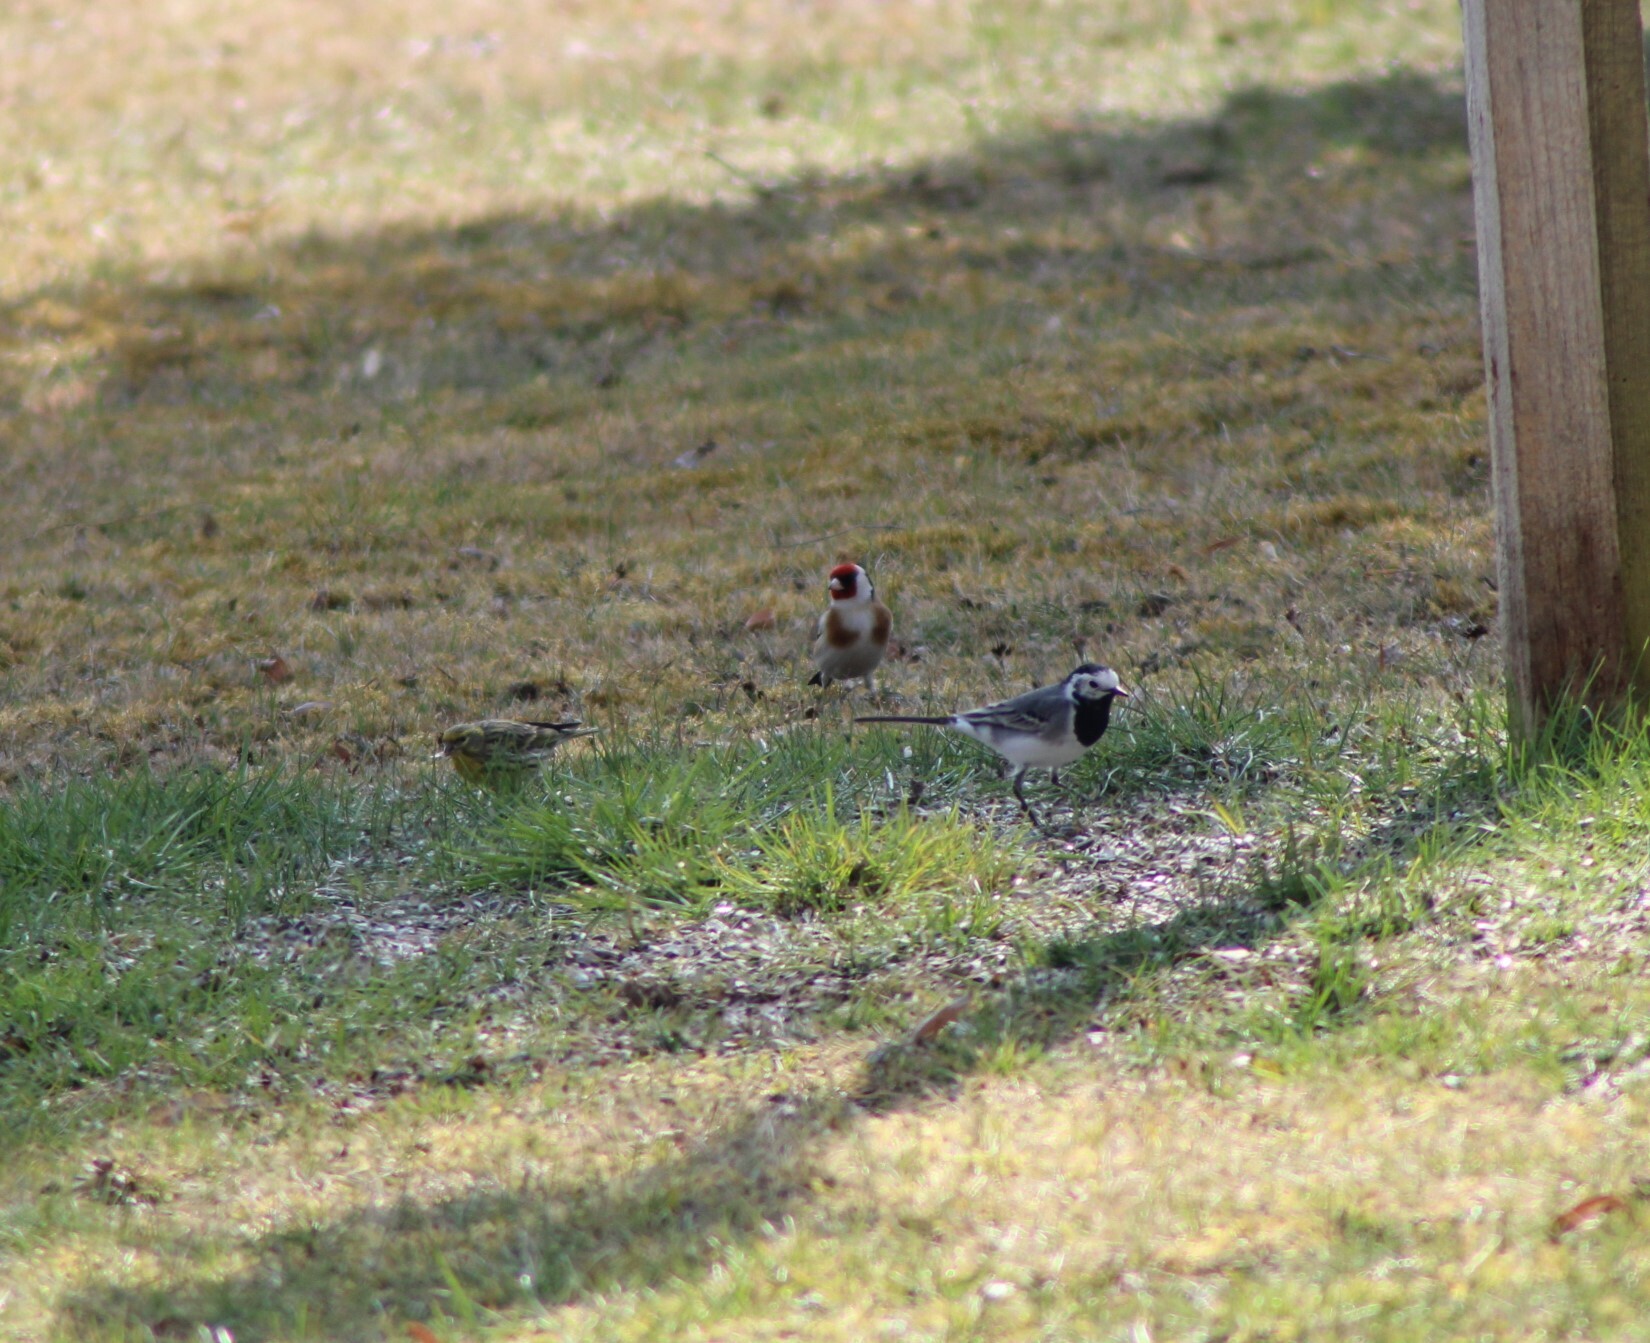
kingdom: Animalia
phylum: Chordata
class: Aves
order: Passeriformes
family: Fringillidae
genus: Carduelis
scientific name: Carduelis carduelis
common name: European goldfinch
